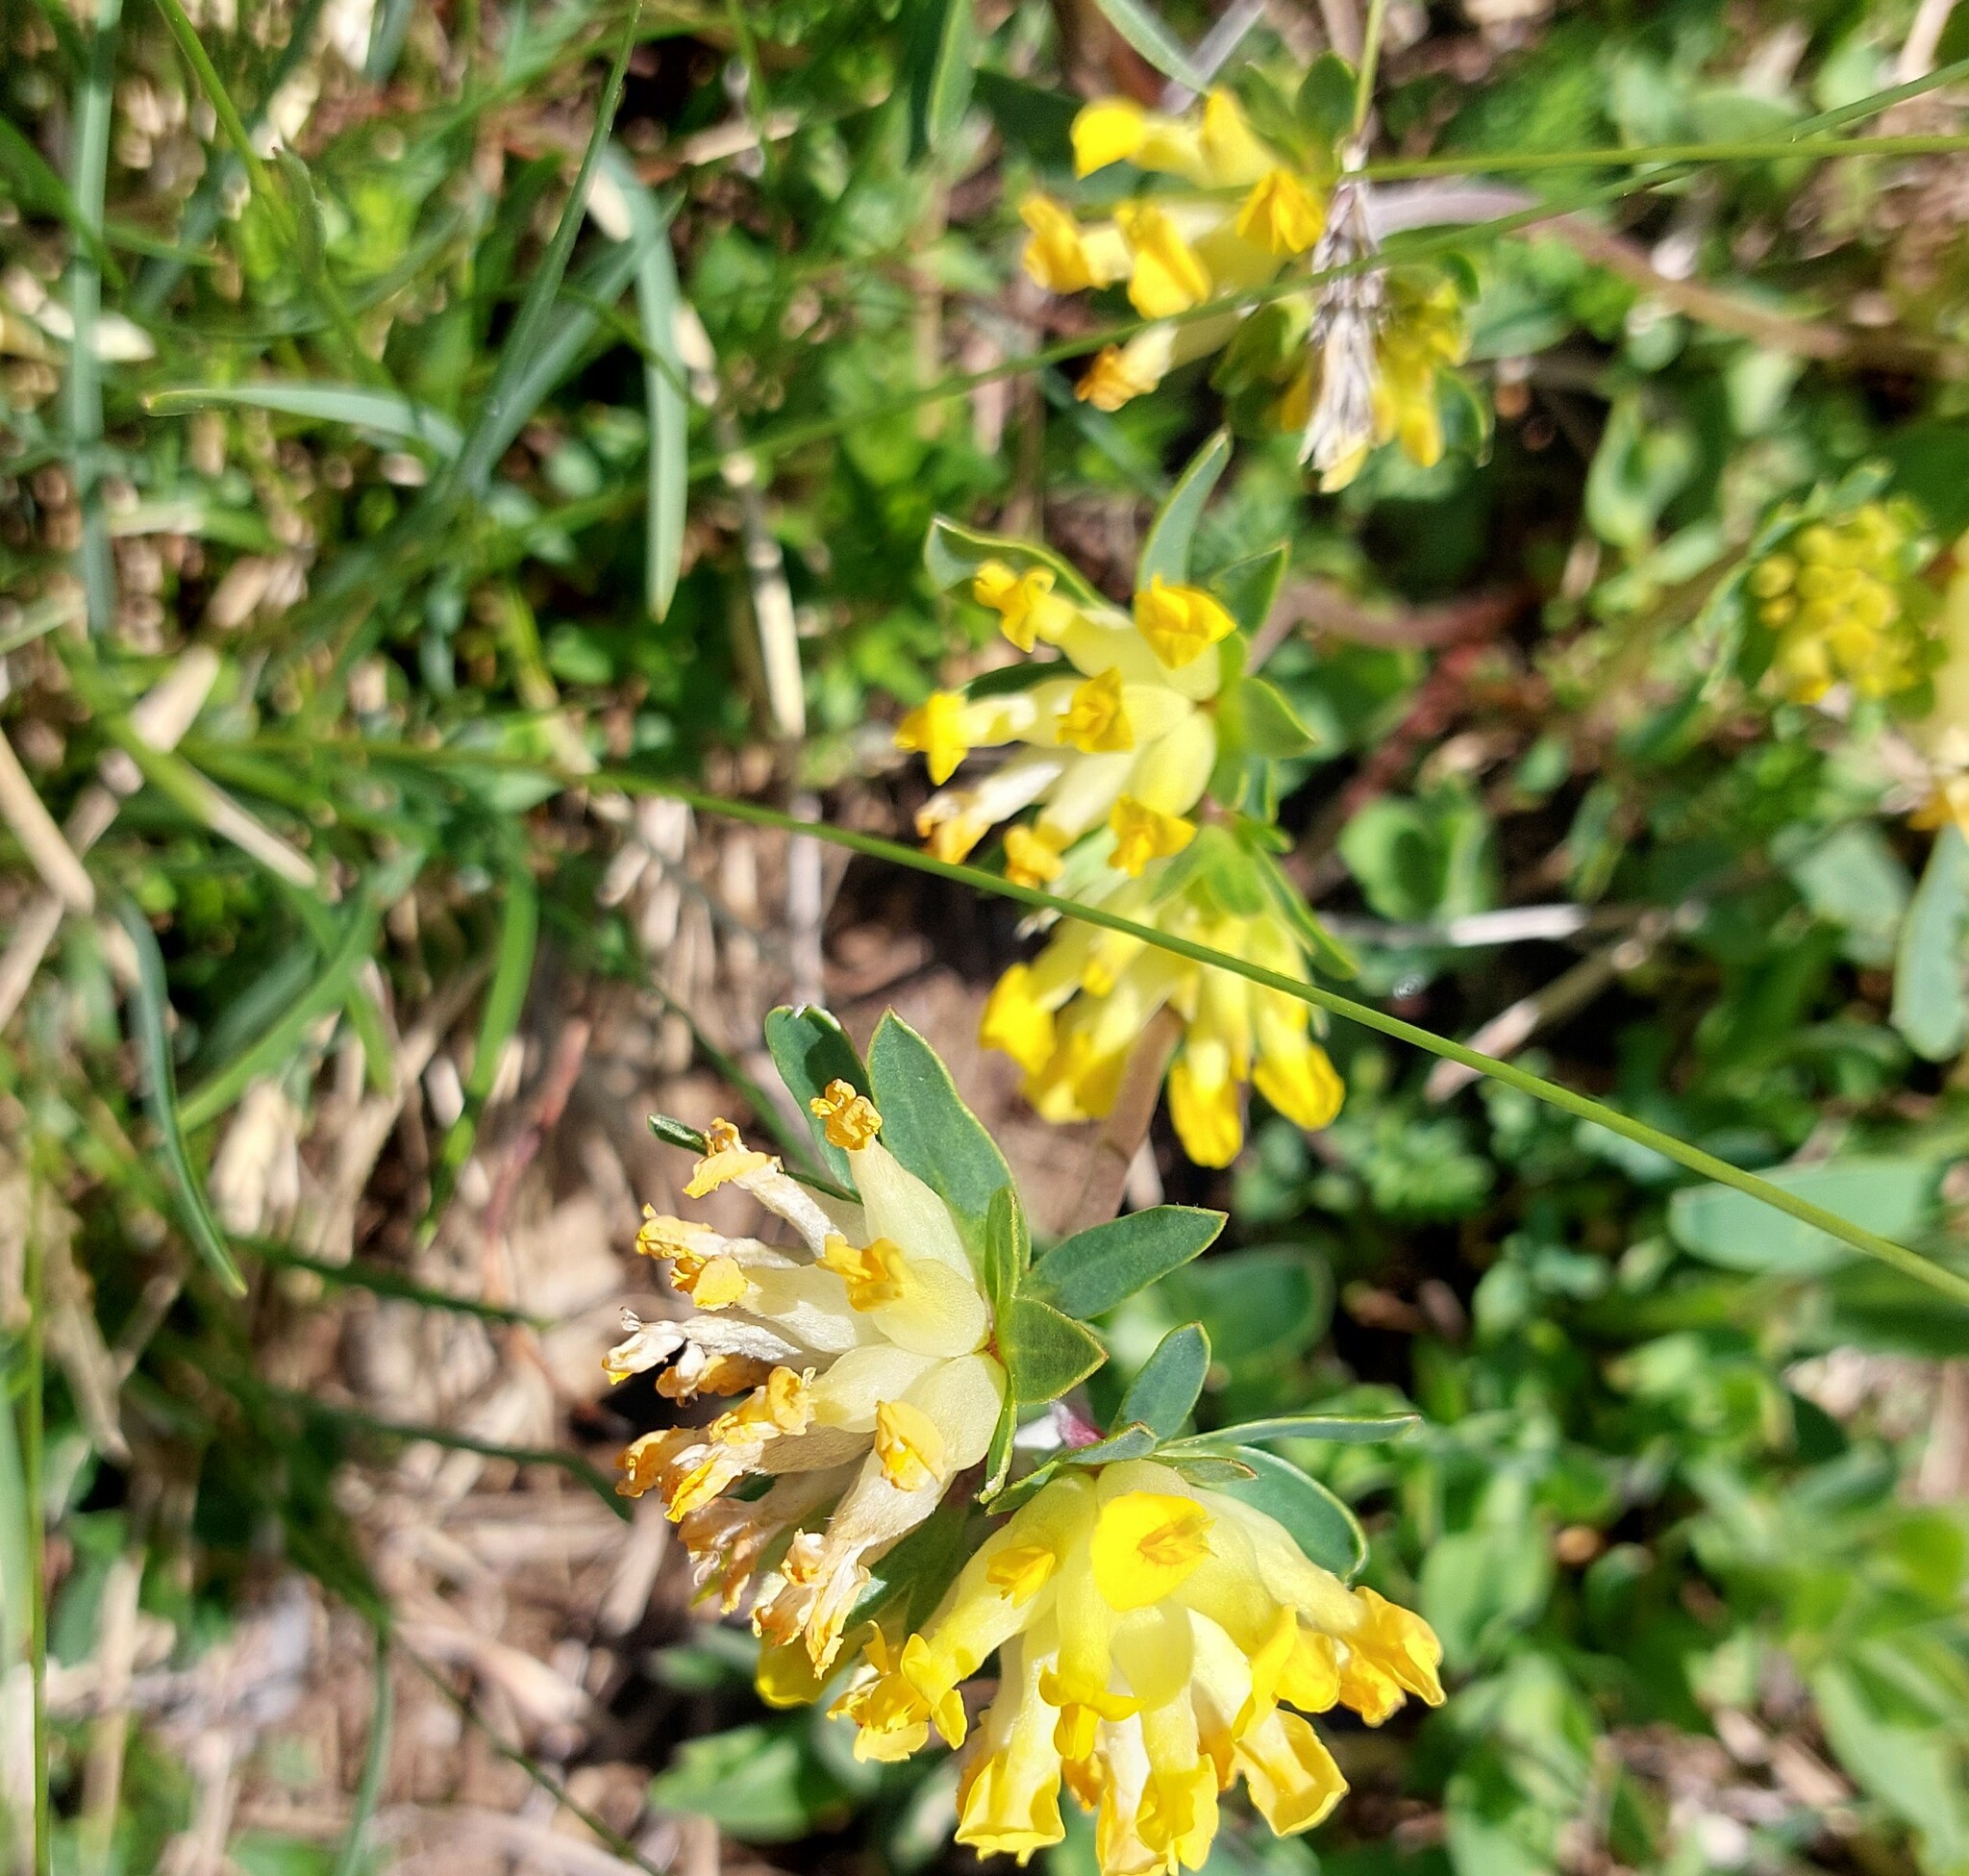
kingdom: Plantae
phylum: Tracheophyta
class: Magnoliopsida
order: Fabales
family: Fabaceae
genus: Anthyllis
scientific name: Anthyllis vulneraria
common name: Kidney vetch
